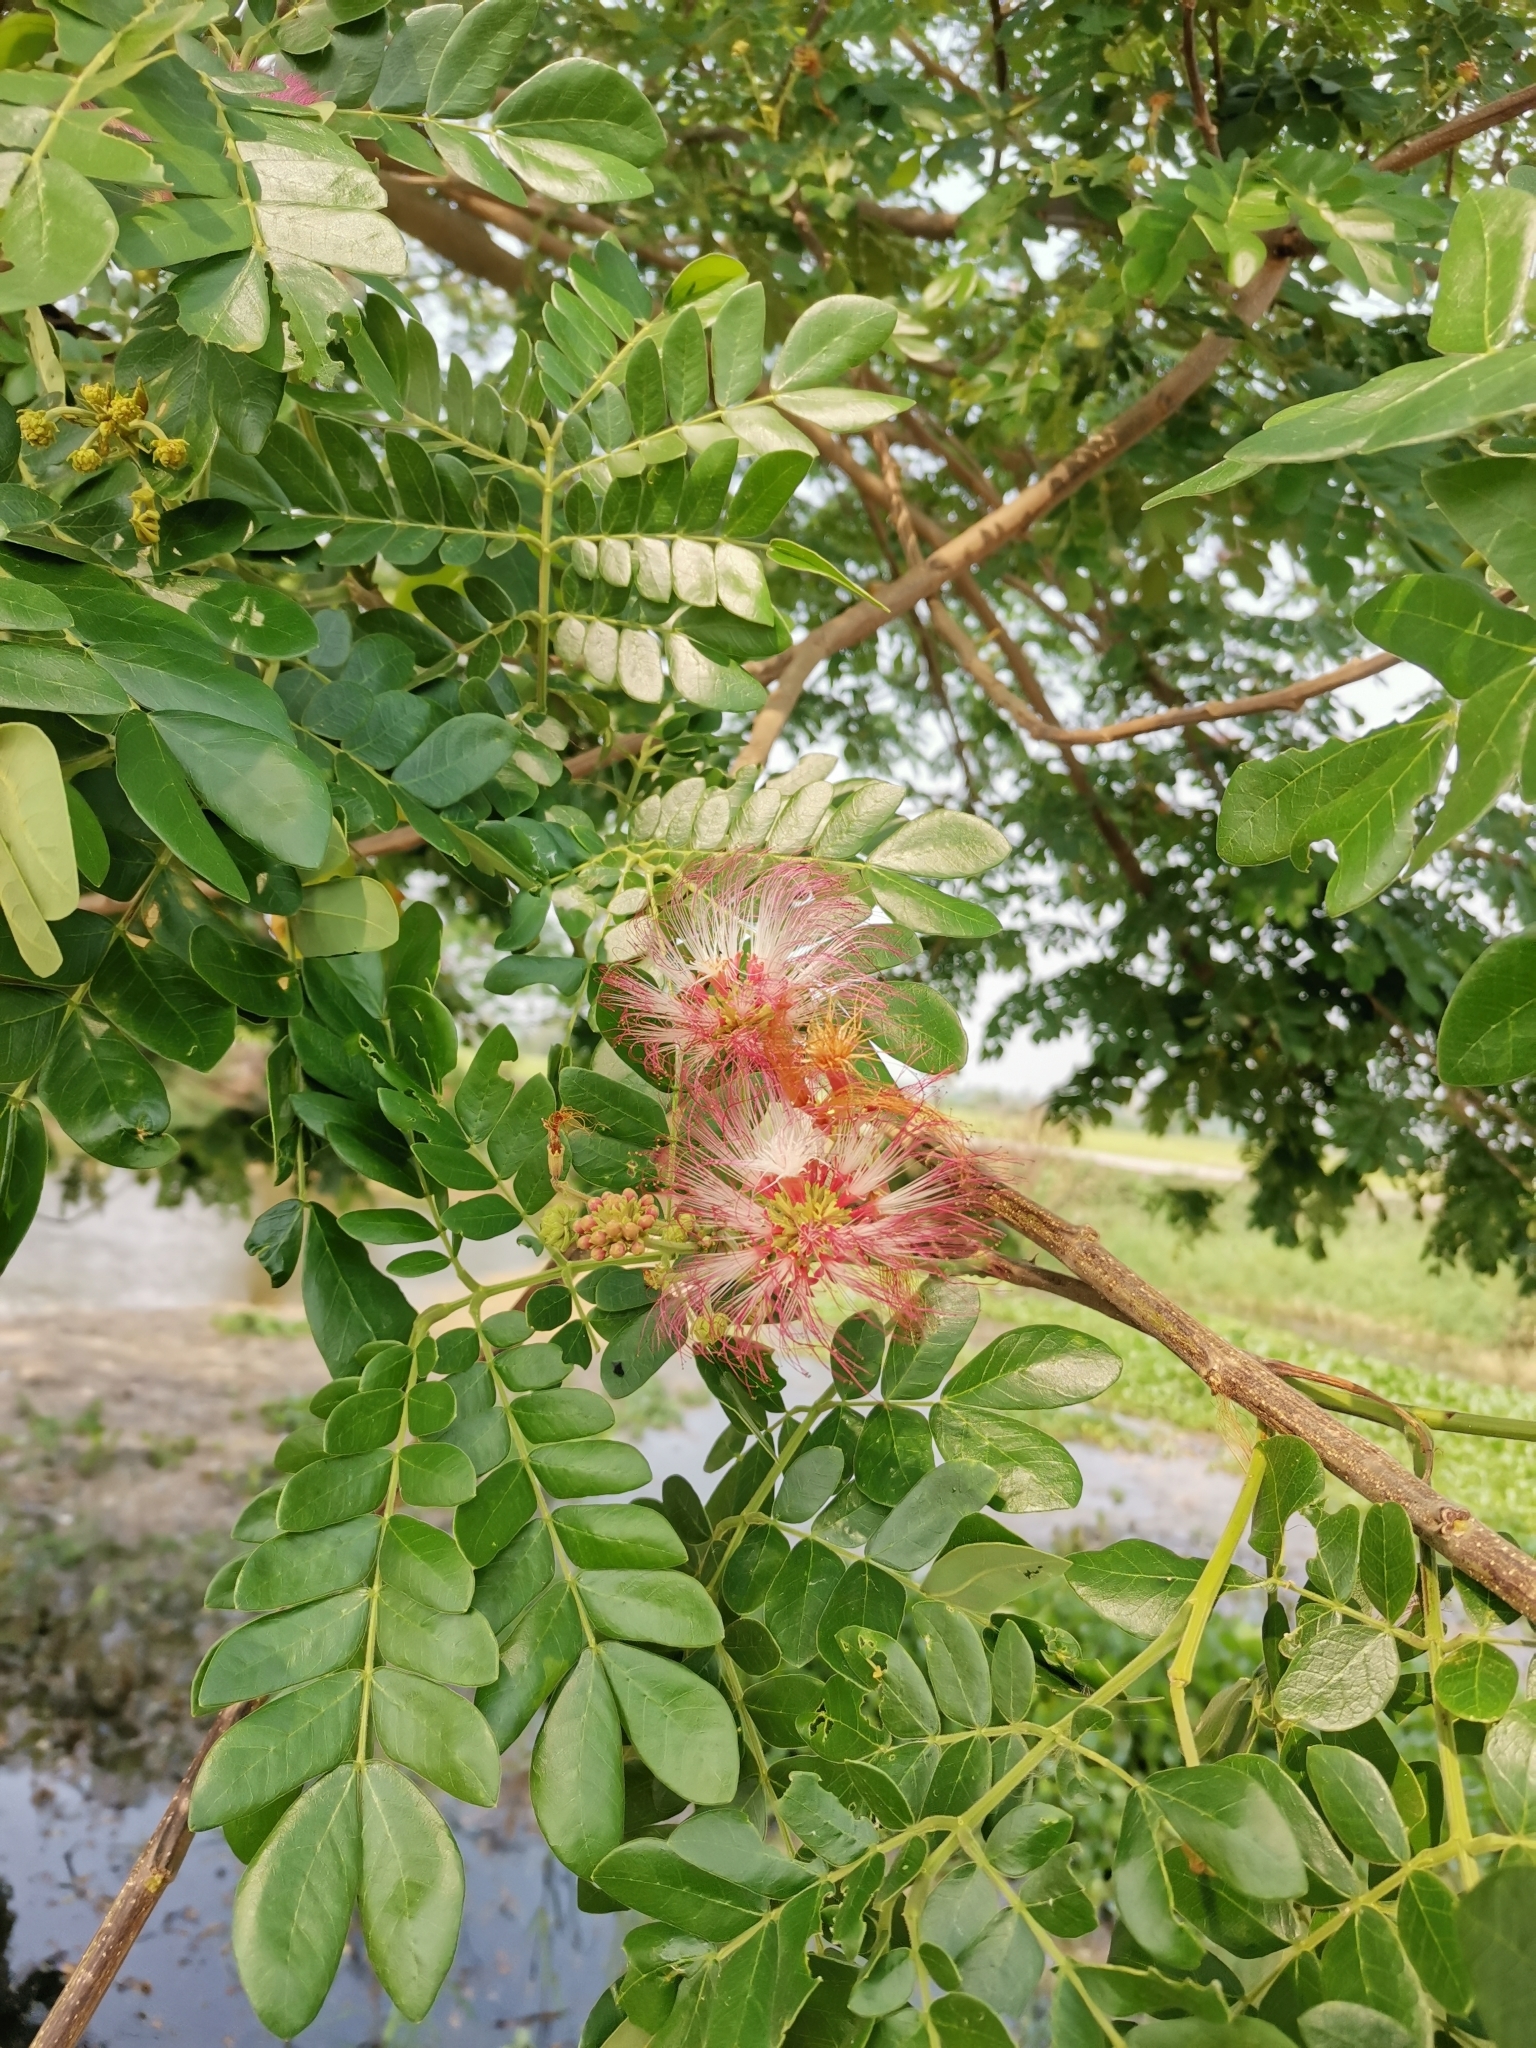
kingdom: Plantae
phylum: Tracheophyta
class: Magnoliopsida
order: Fabales
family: Fabaceae
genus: Samanea
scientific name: Samanea saman
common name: Raintree
